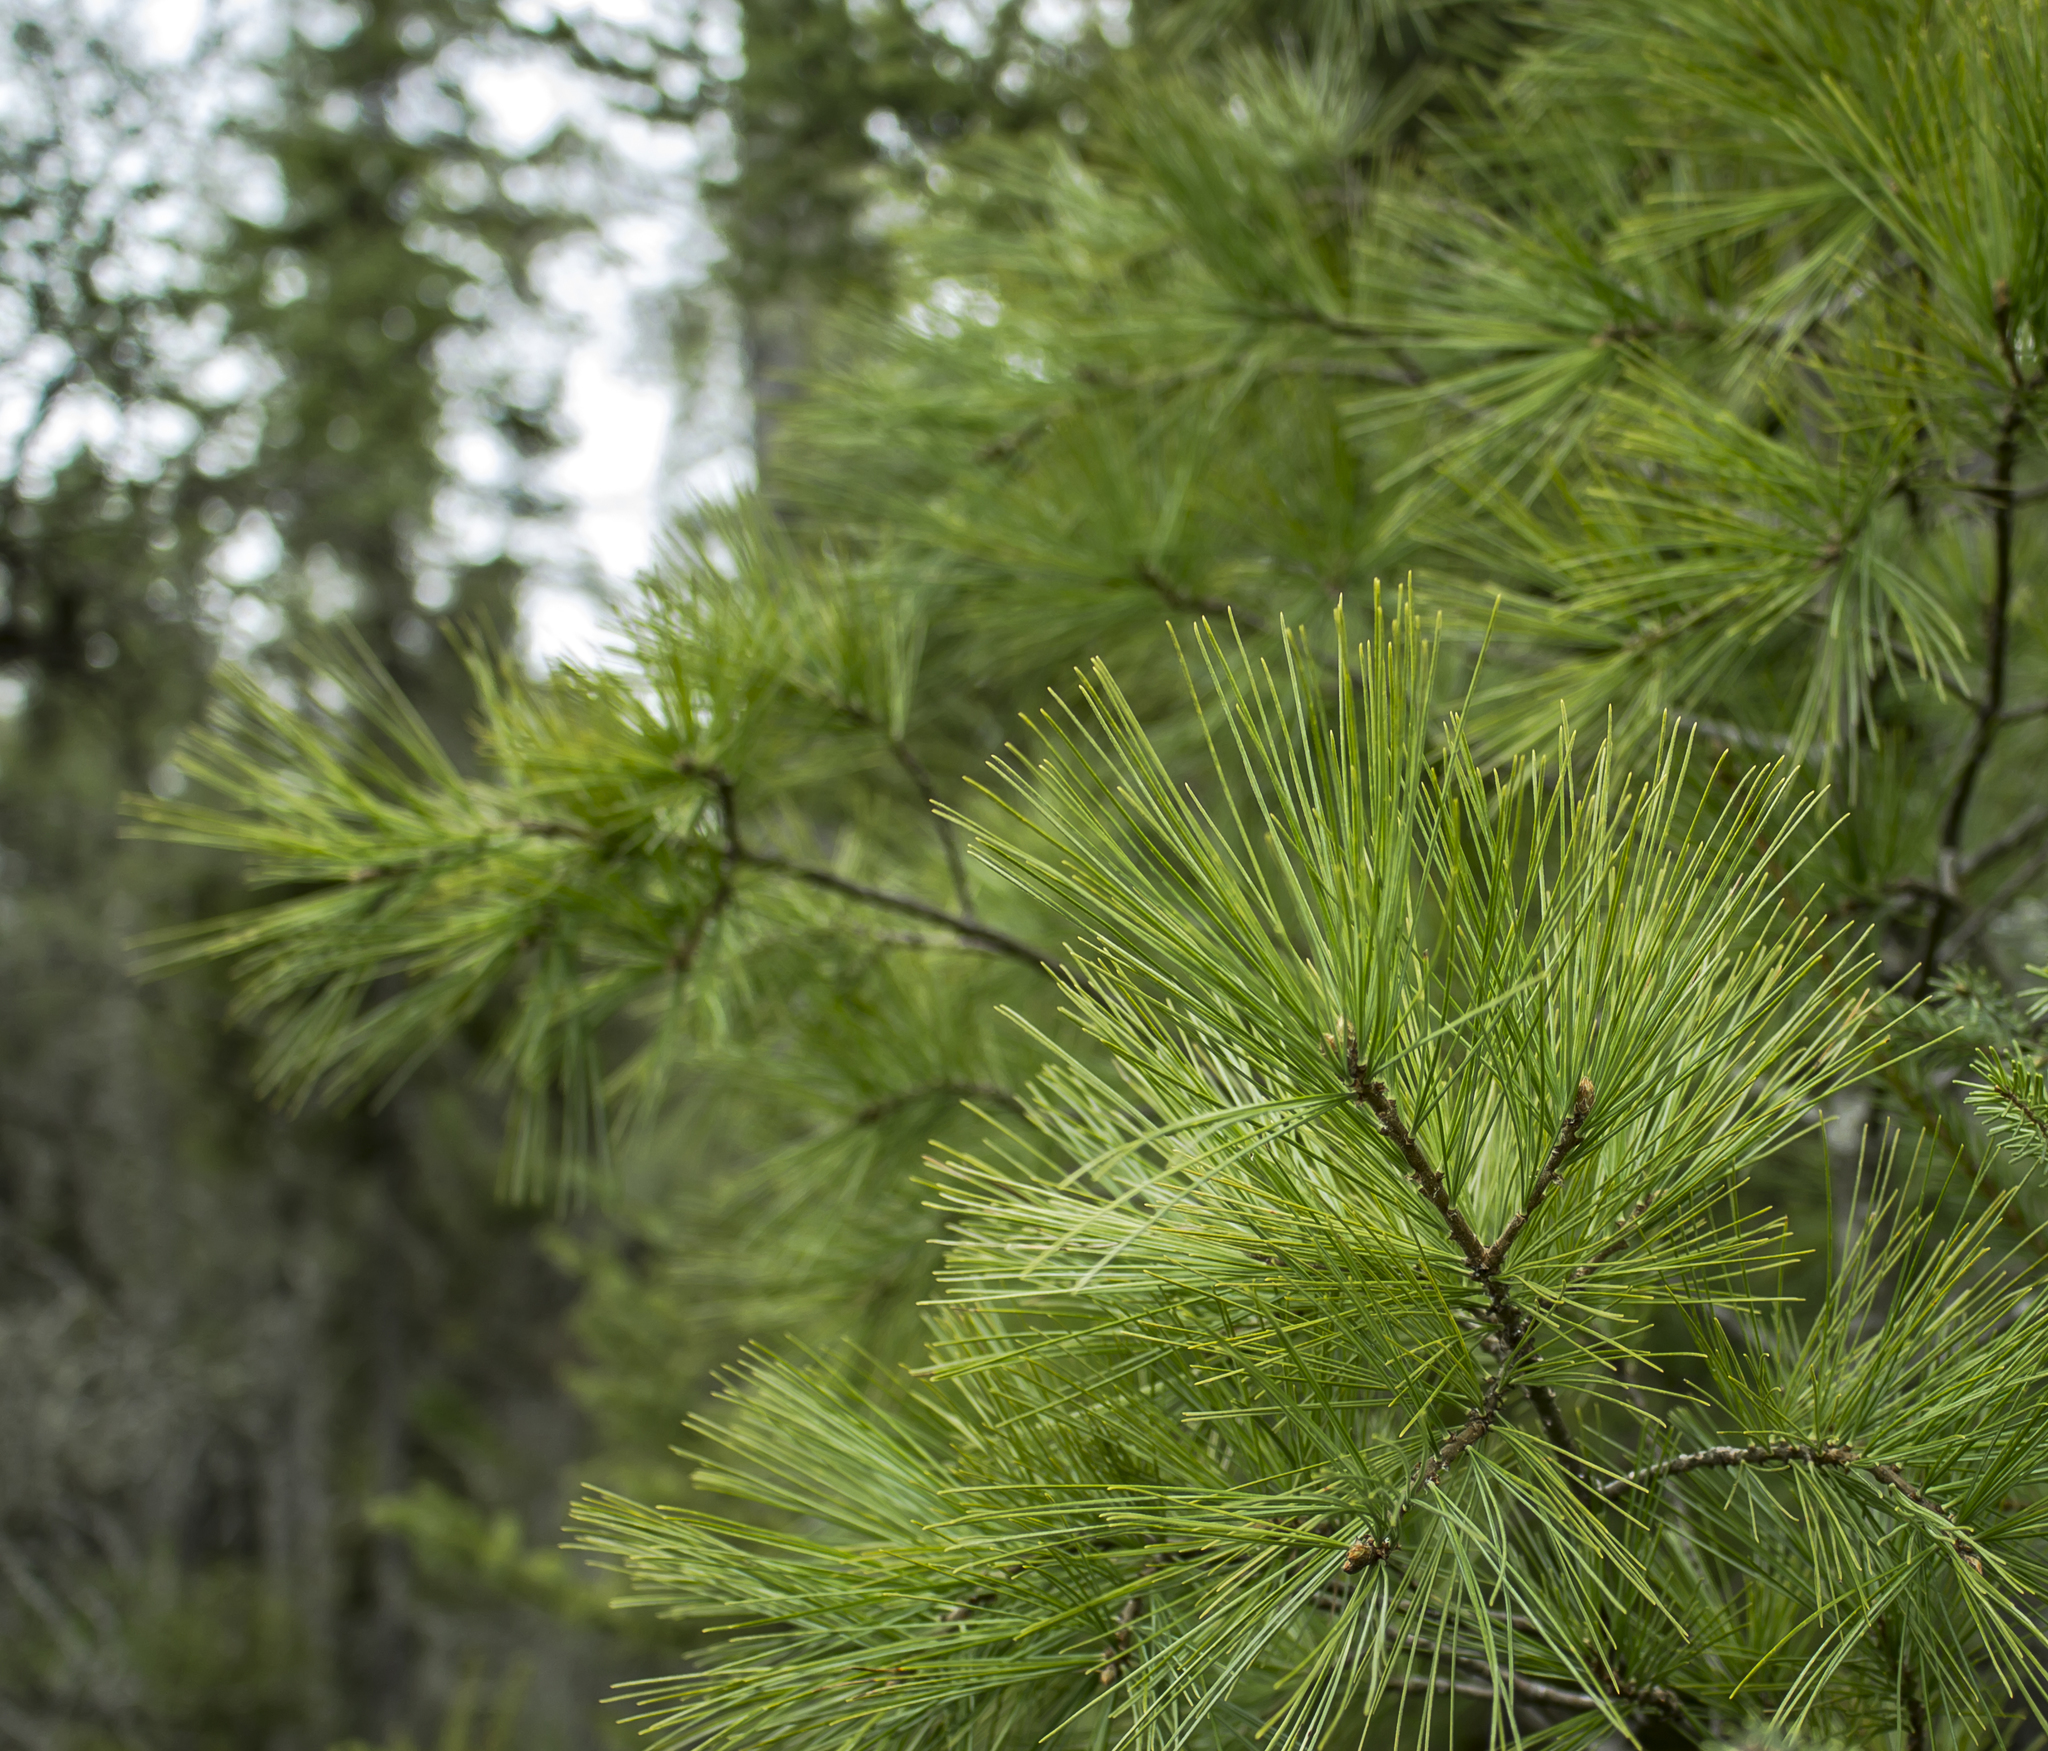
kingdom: Plantae
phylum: Tracheophyta
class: Pinopsida
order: Pinales
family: Pinaceae
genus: Pinus
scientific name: Pinus strobus
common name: Weymouth pine
